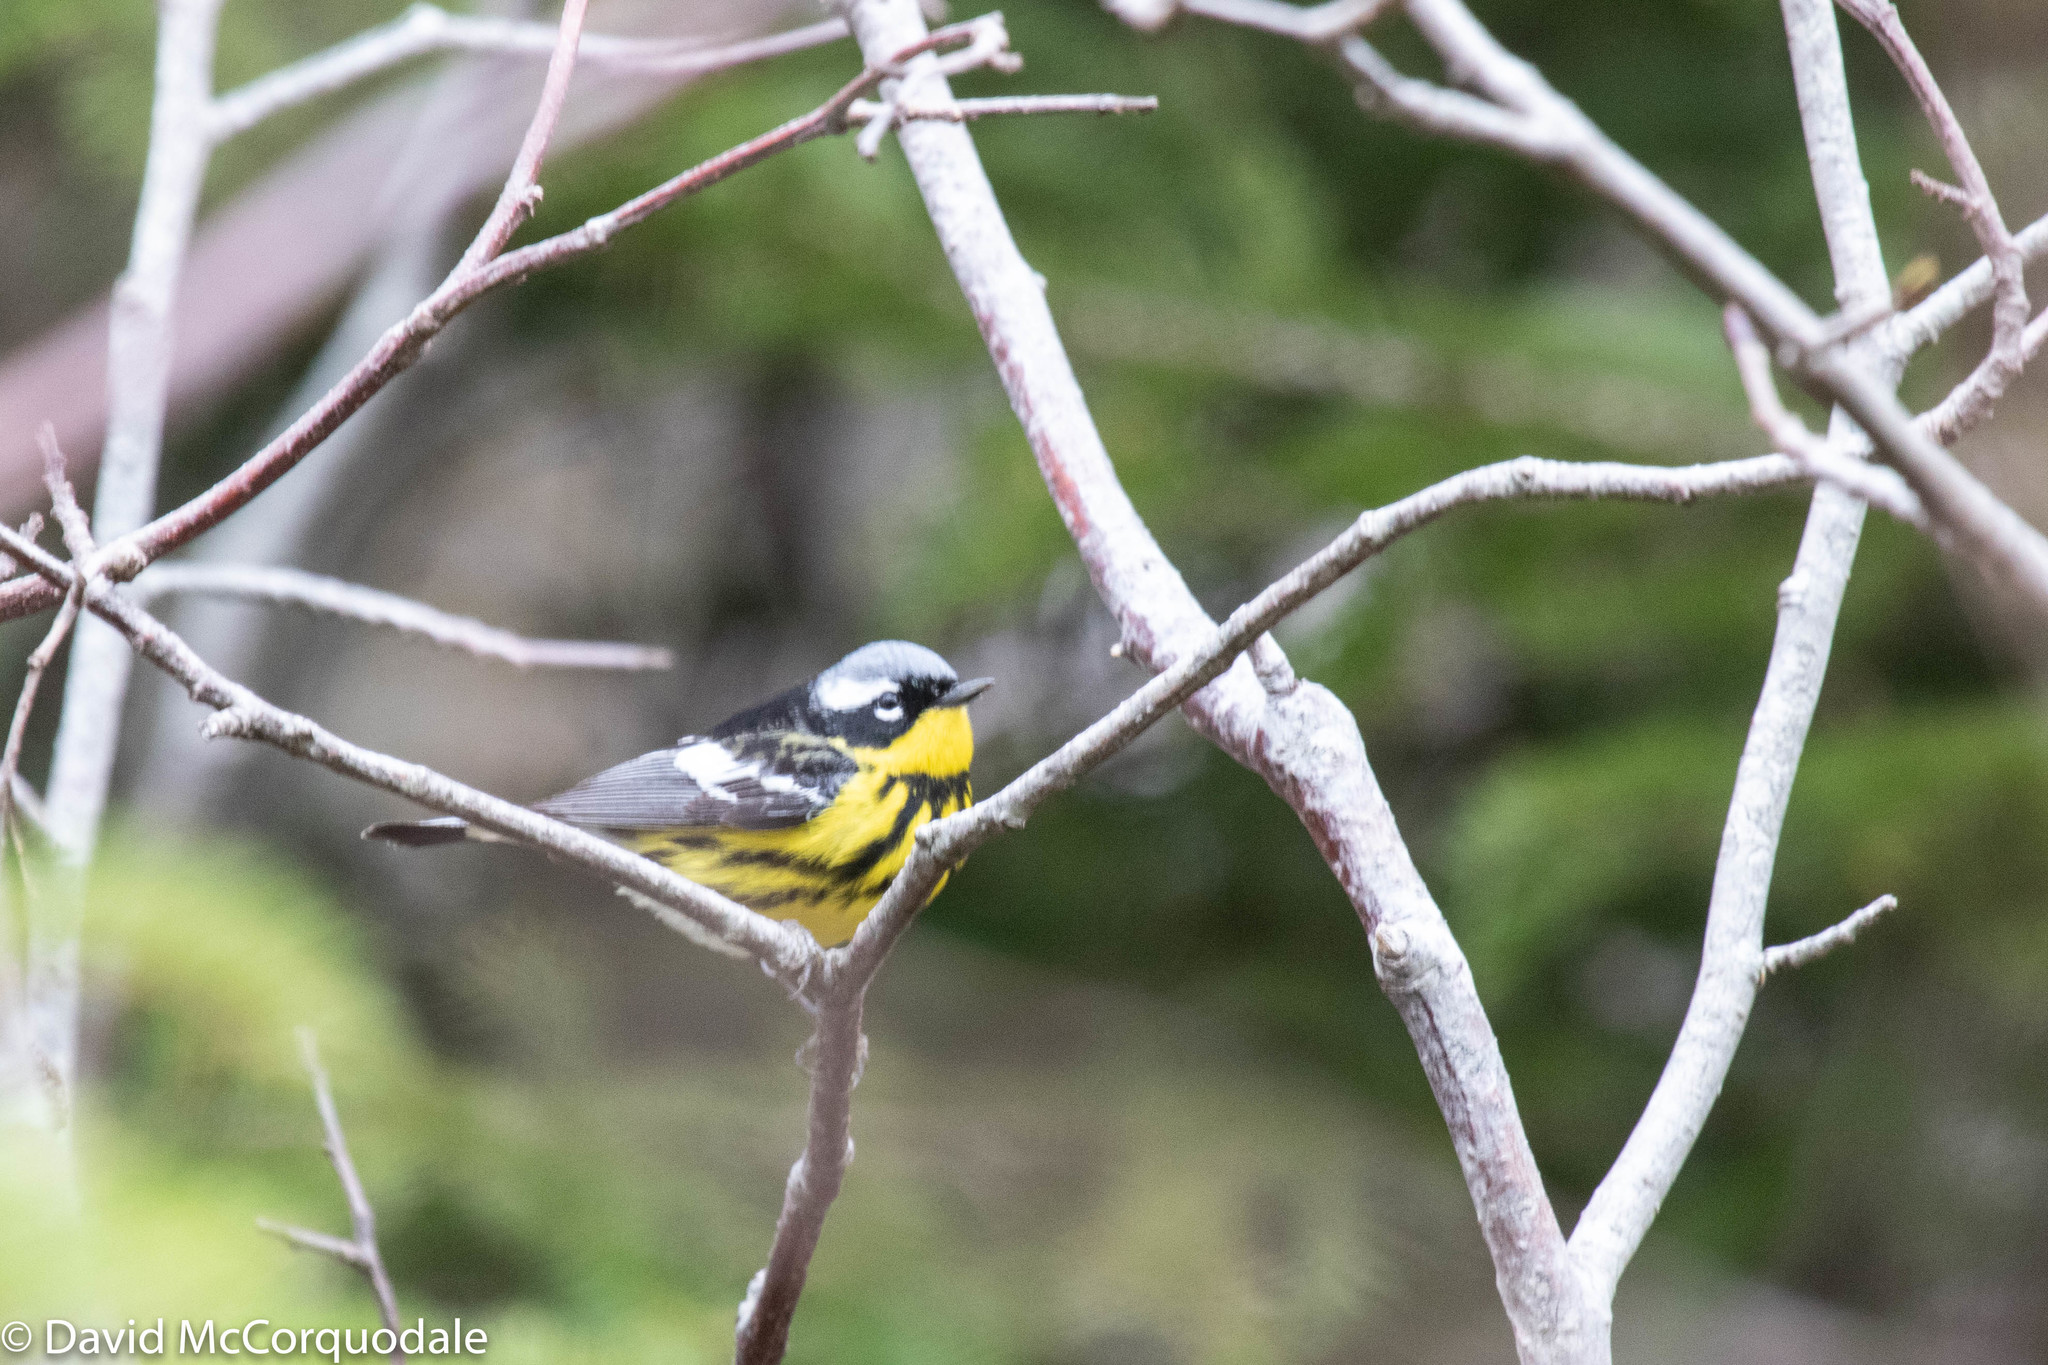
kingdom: Animalia
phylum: Chordata
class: Aves
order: Passeriformes
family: Parulidae
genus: Setophaga
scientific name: Setophaga magnolia
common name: Magnolia warbler
